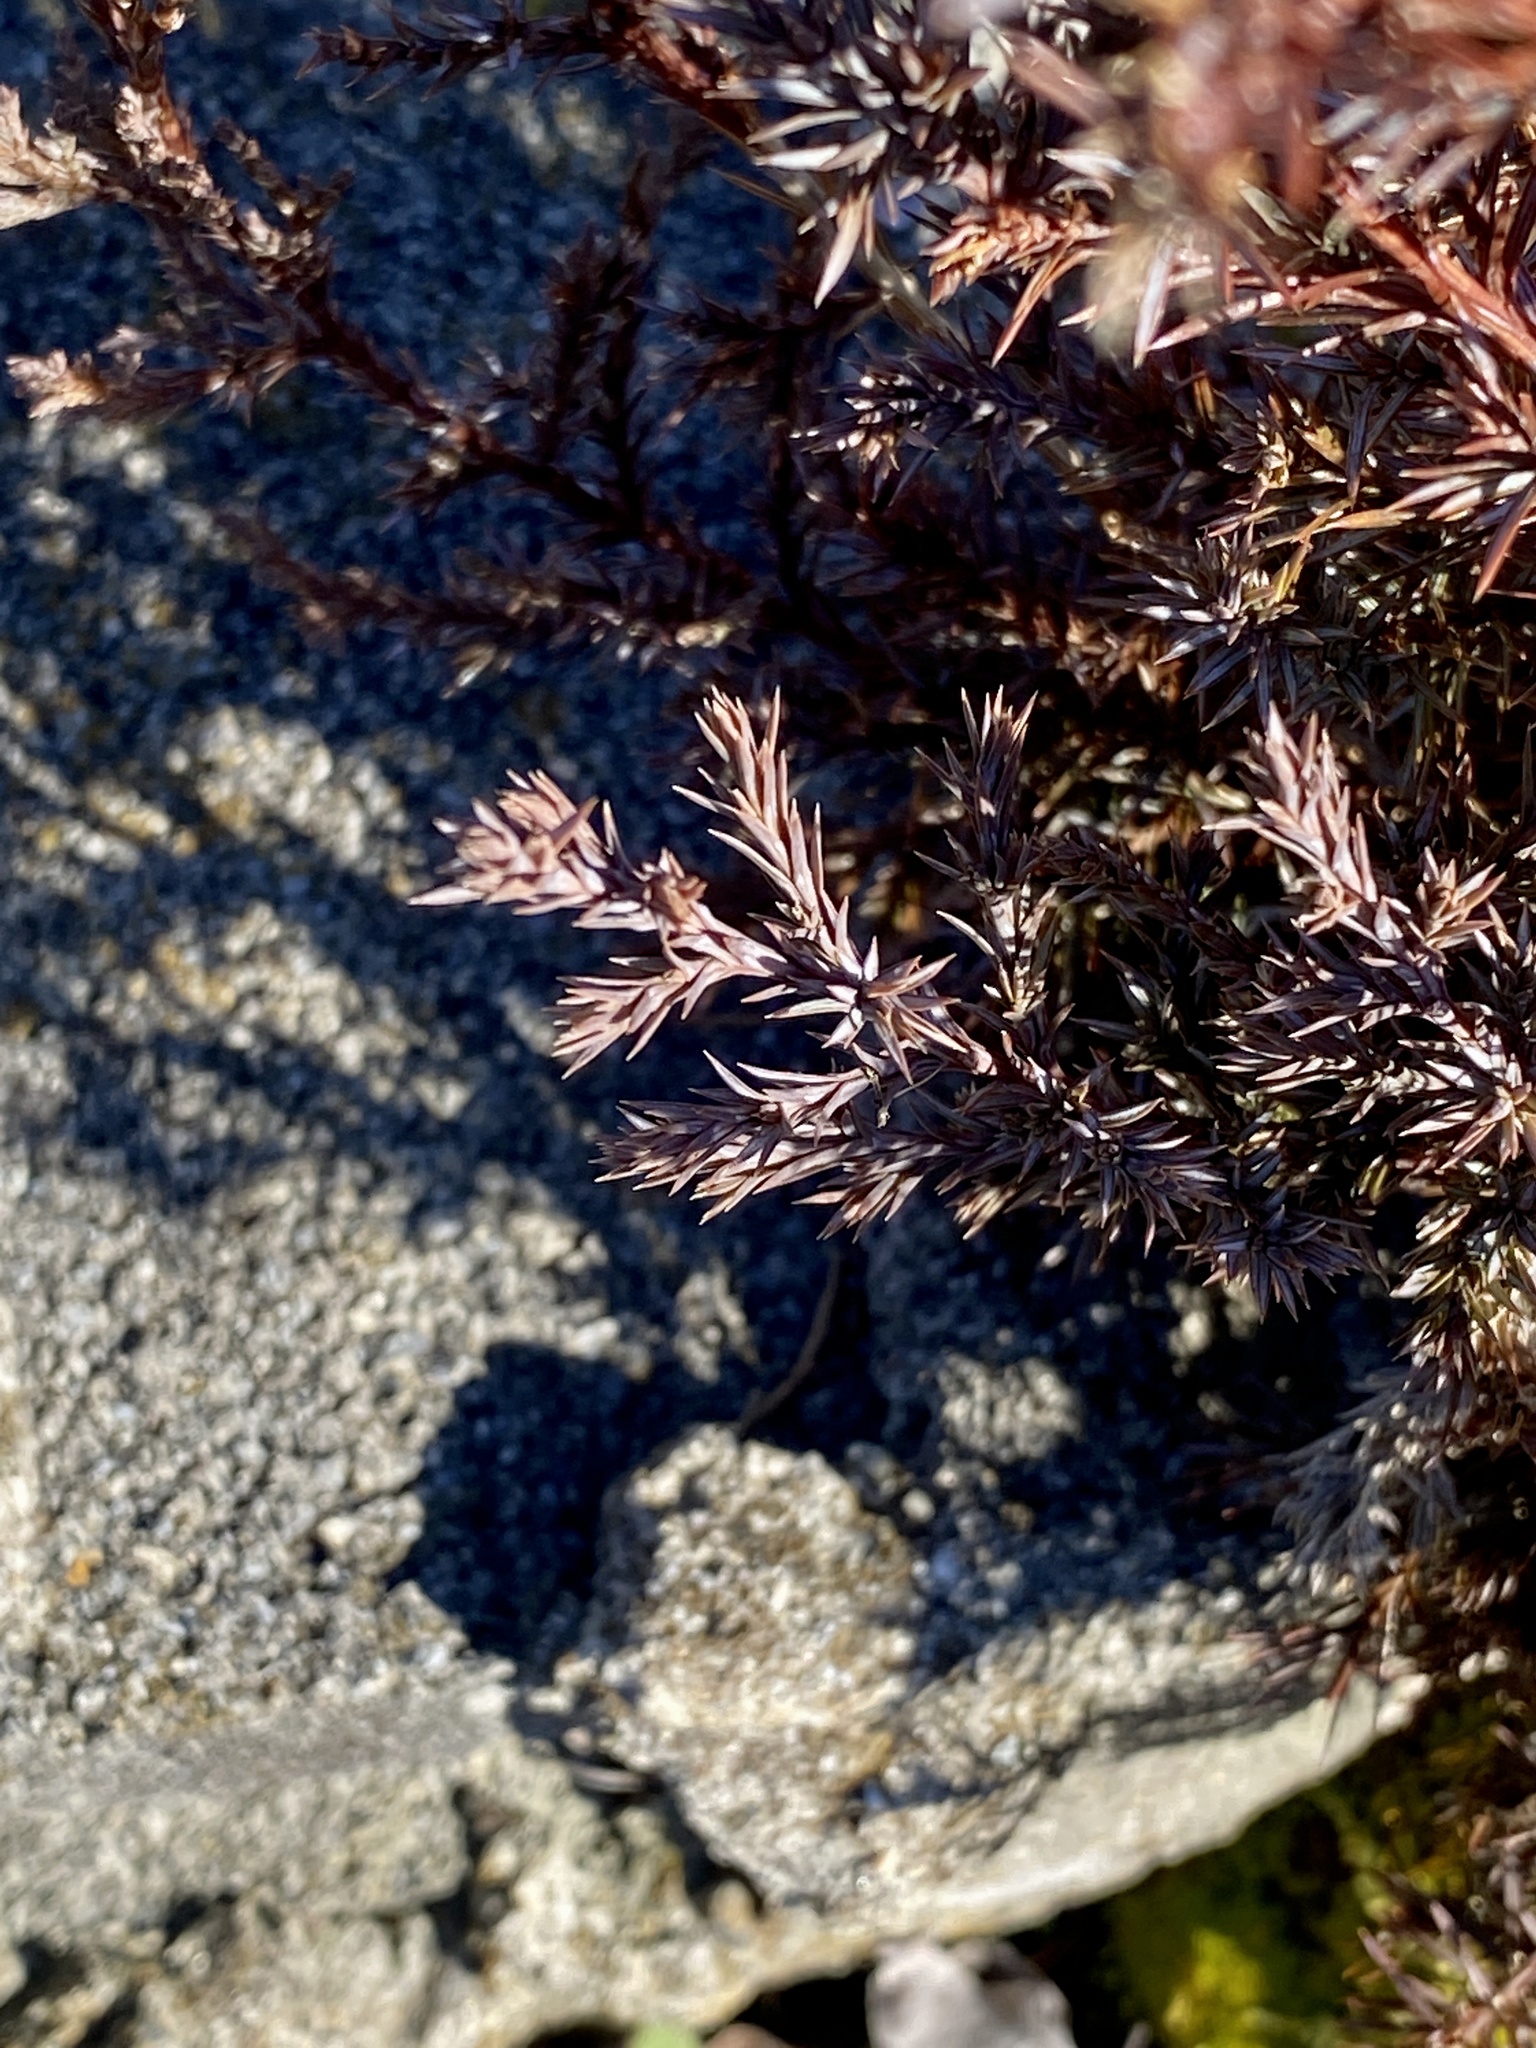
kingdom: Plantae
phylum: Tracheophyta
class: Pinopsida
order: Pinales
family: Cupressaceae
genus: Juniperus
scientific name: Juniperus virginiana
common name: Red juniper
